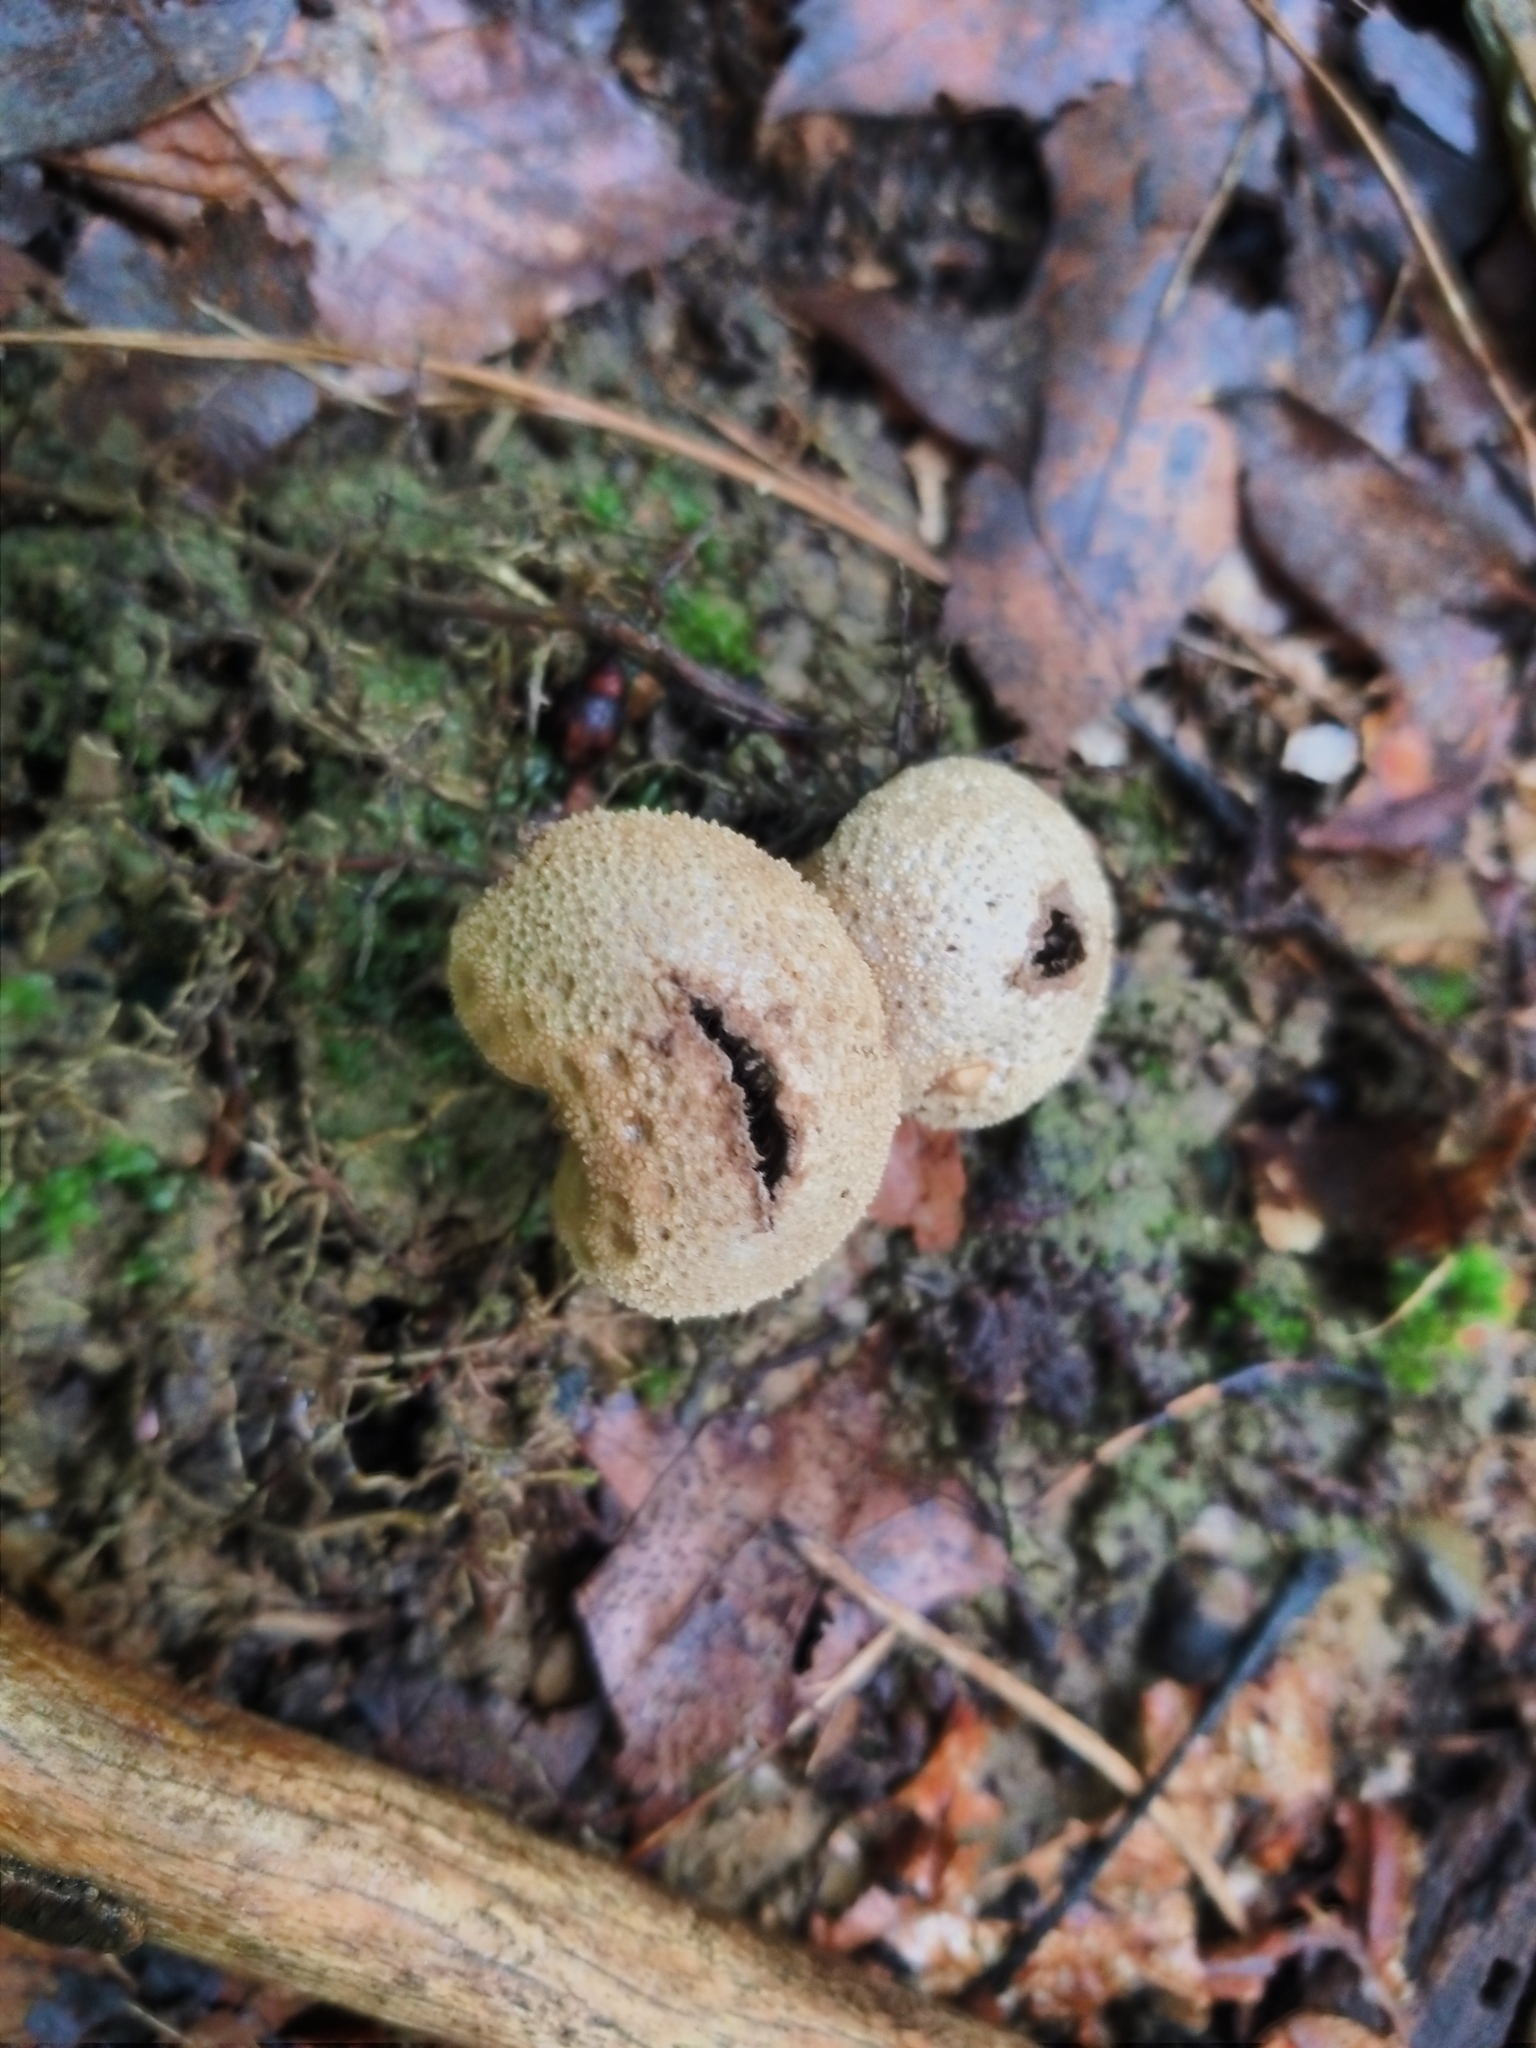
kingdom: Fungi
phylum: Basidiomycota
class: Agaricomycetes
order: Boletales
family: Sclerodermataceae
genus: Scleroderma
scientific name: Scleroderma citrinum
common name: Common earthball
